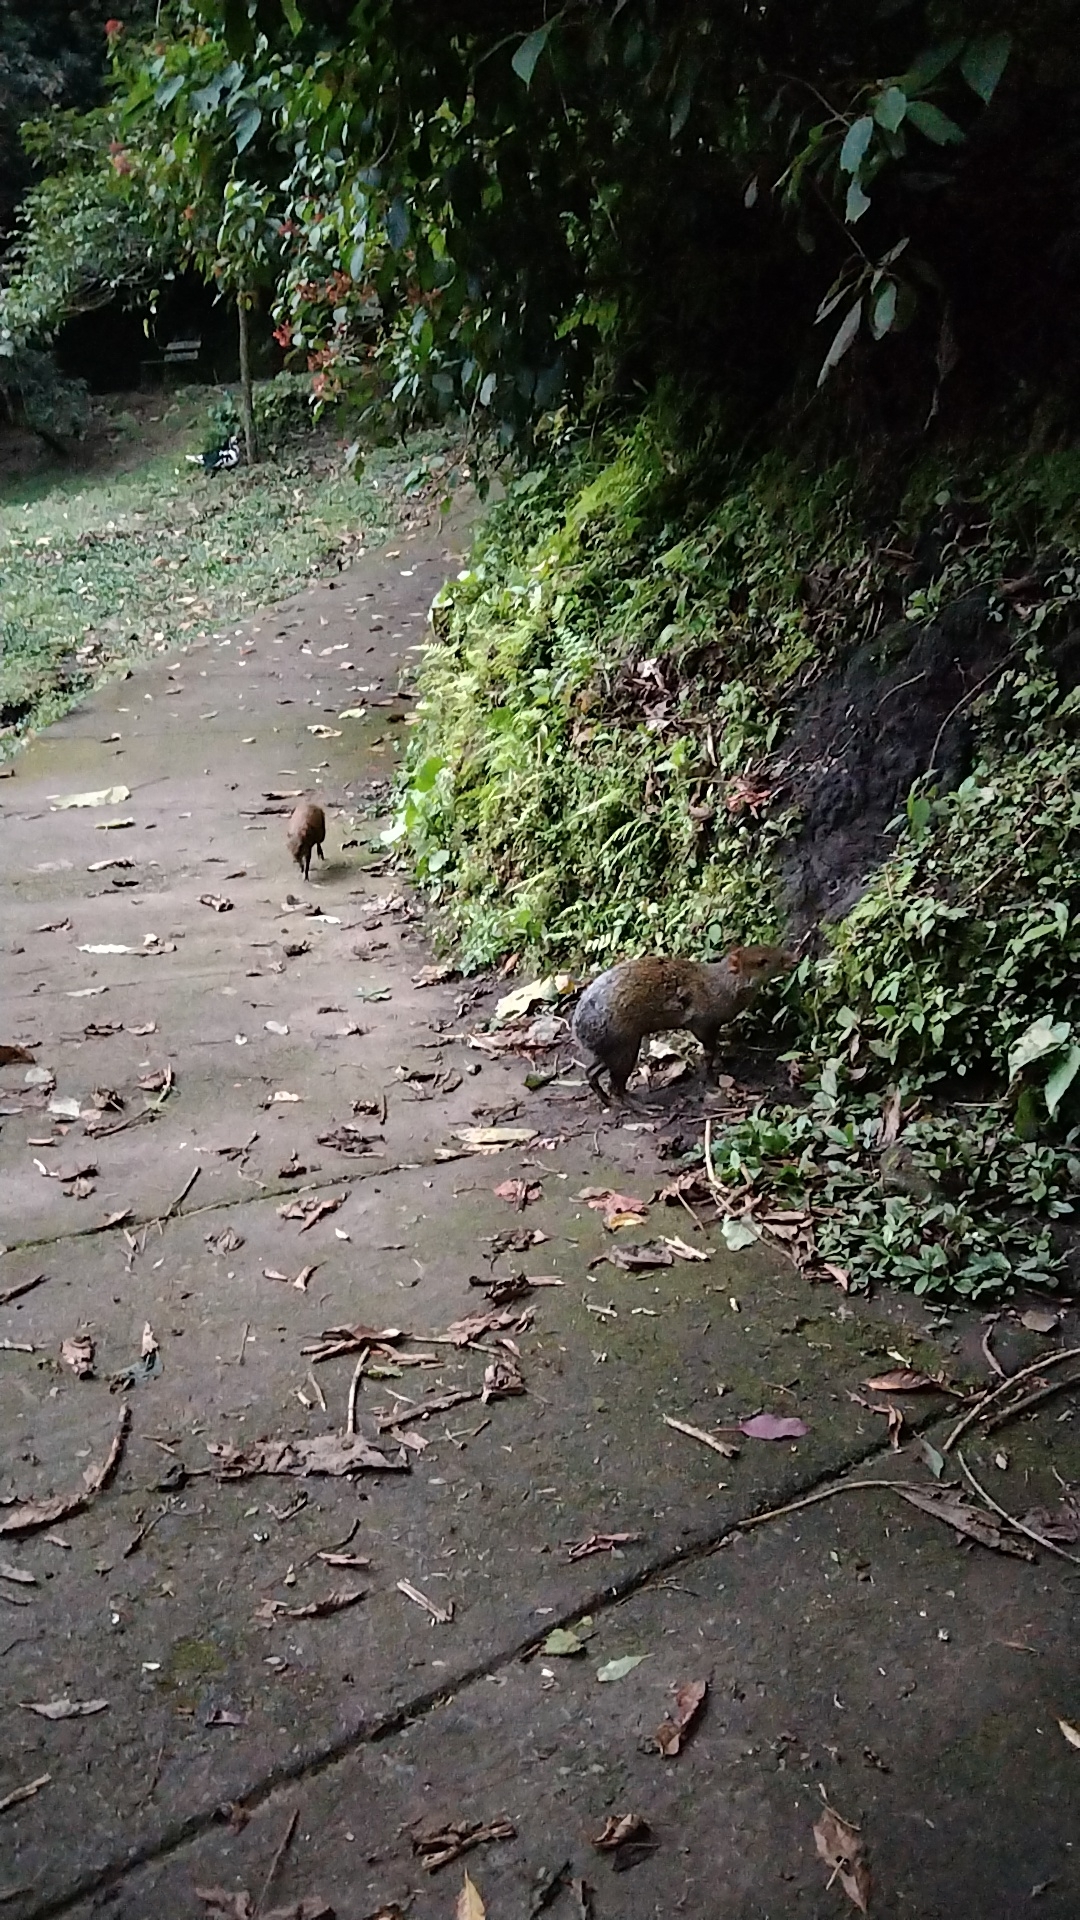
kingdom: Animalia
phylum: Chordata
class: Mammalia
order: Rodentia
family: Dasyproctidae
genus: Dasyprocta
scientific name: Dasyprocta punctata
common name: Central american agouti
